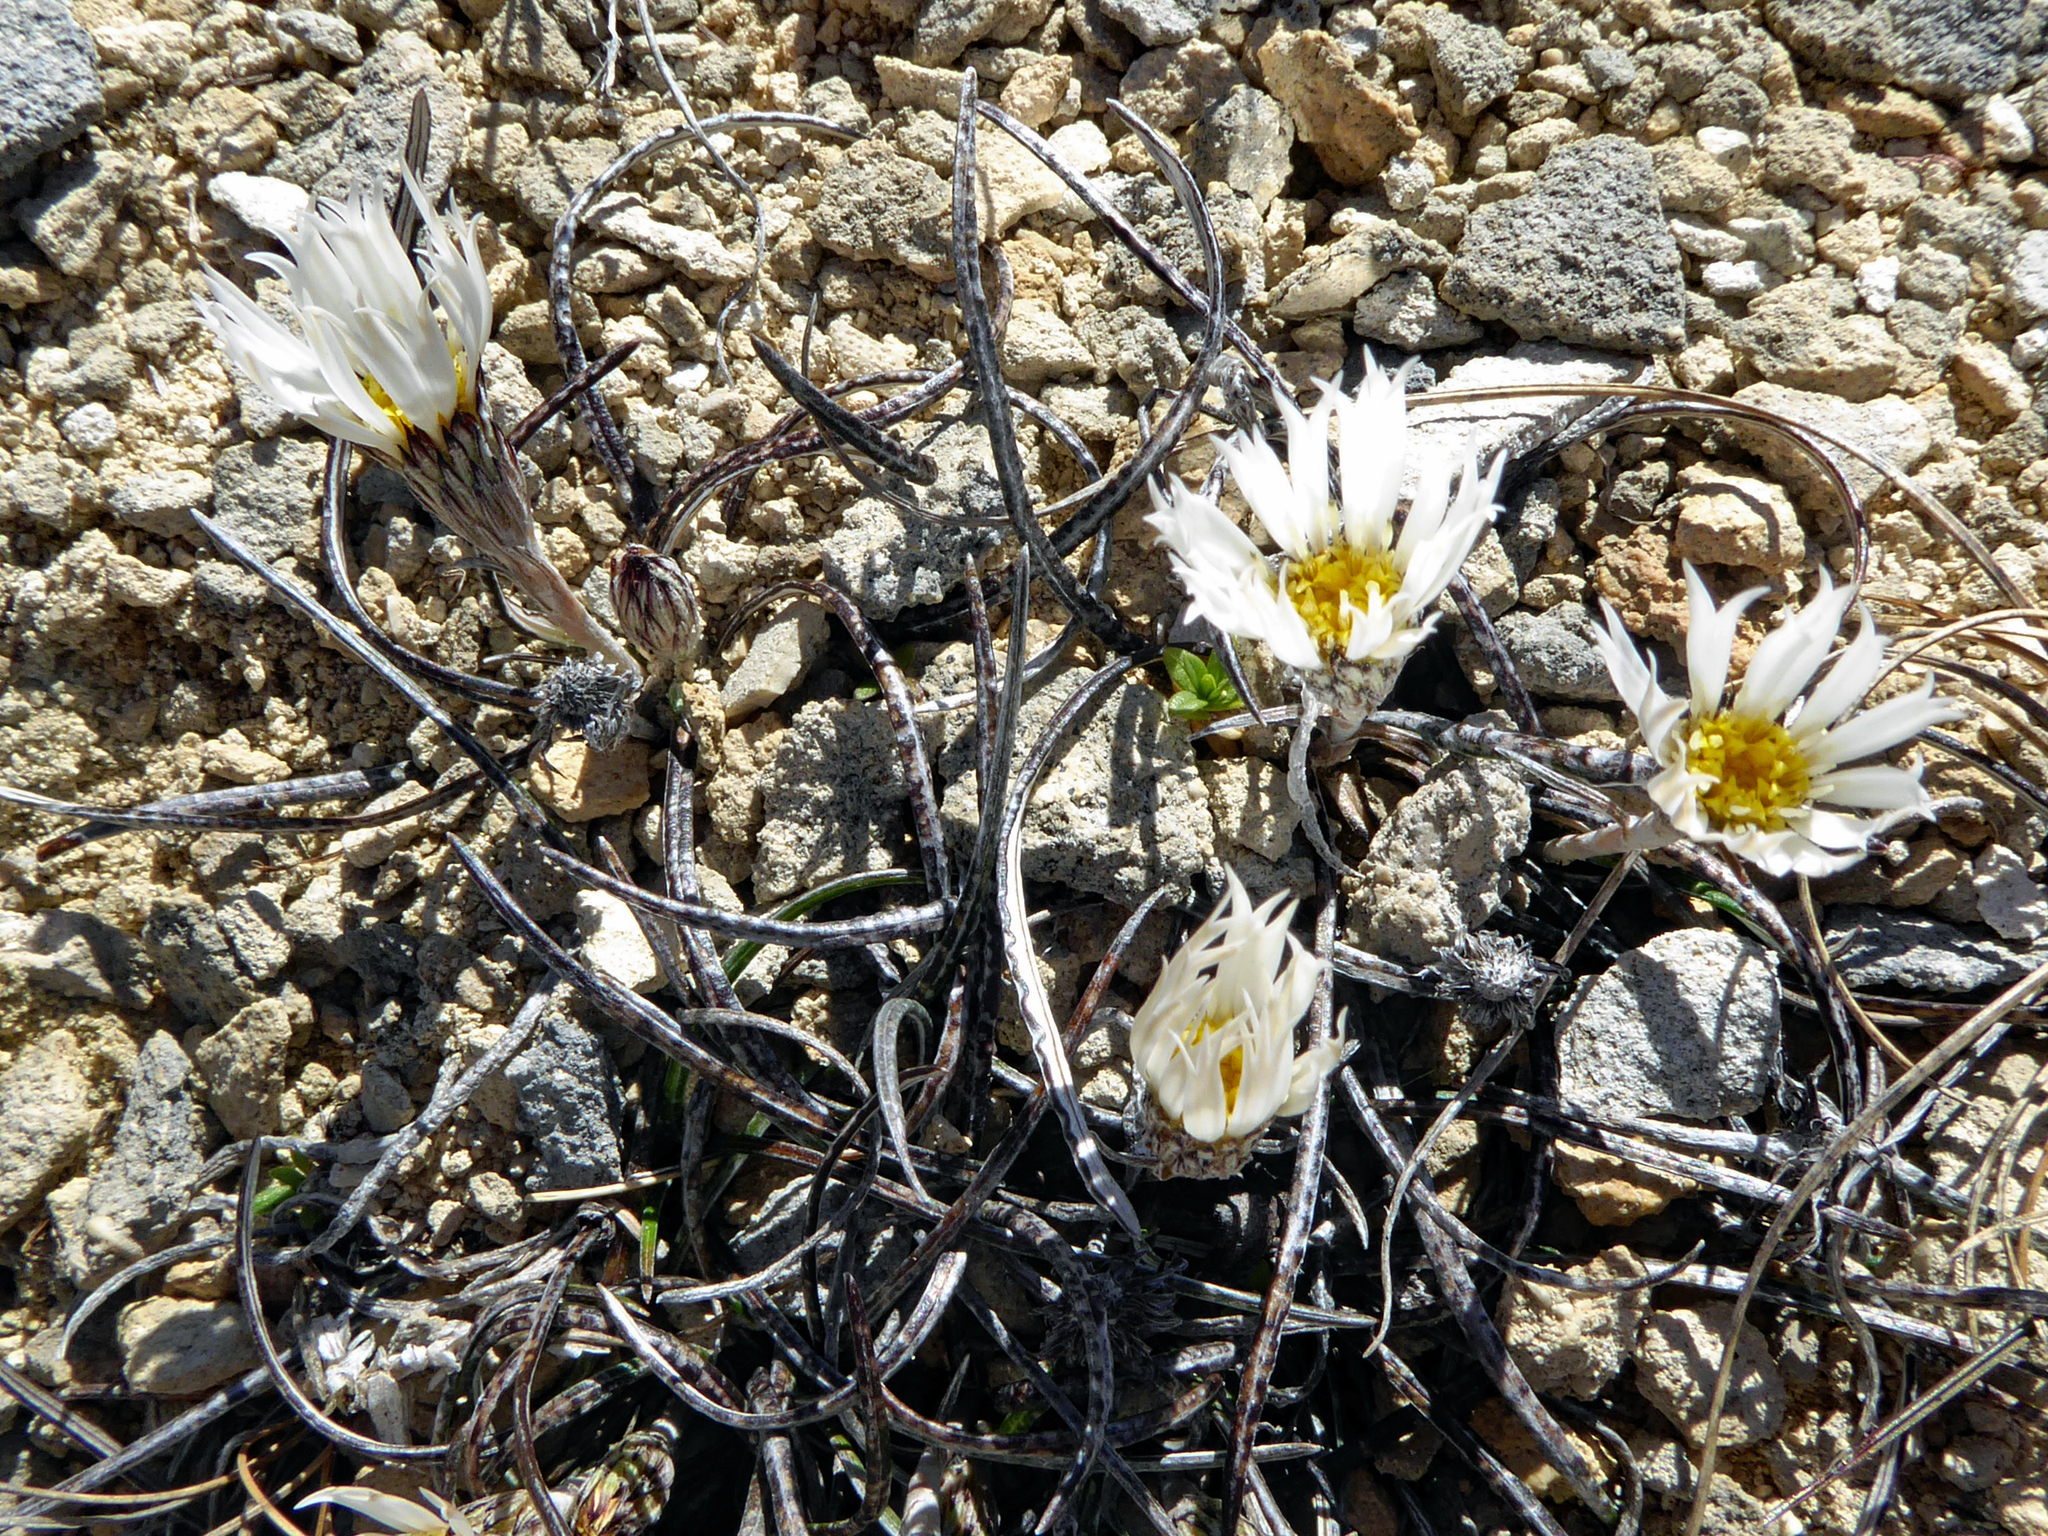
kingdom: Plantae
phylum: Tracheophyta
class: Magnoliopsida
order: Asterales
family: Asteraceae
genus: Celmisia
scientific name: Celmisia gracilenta
